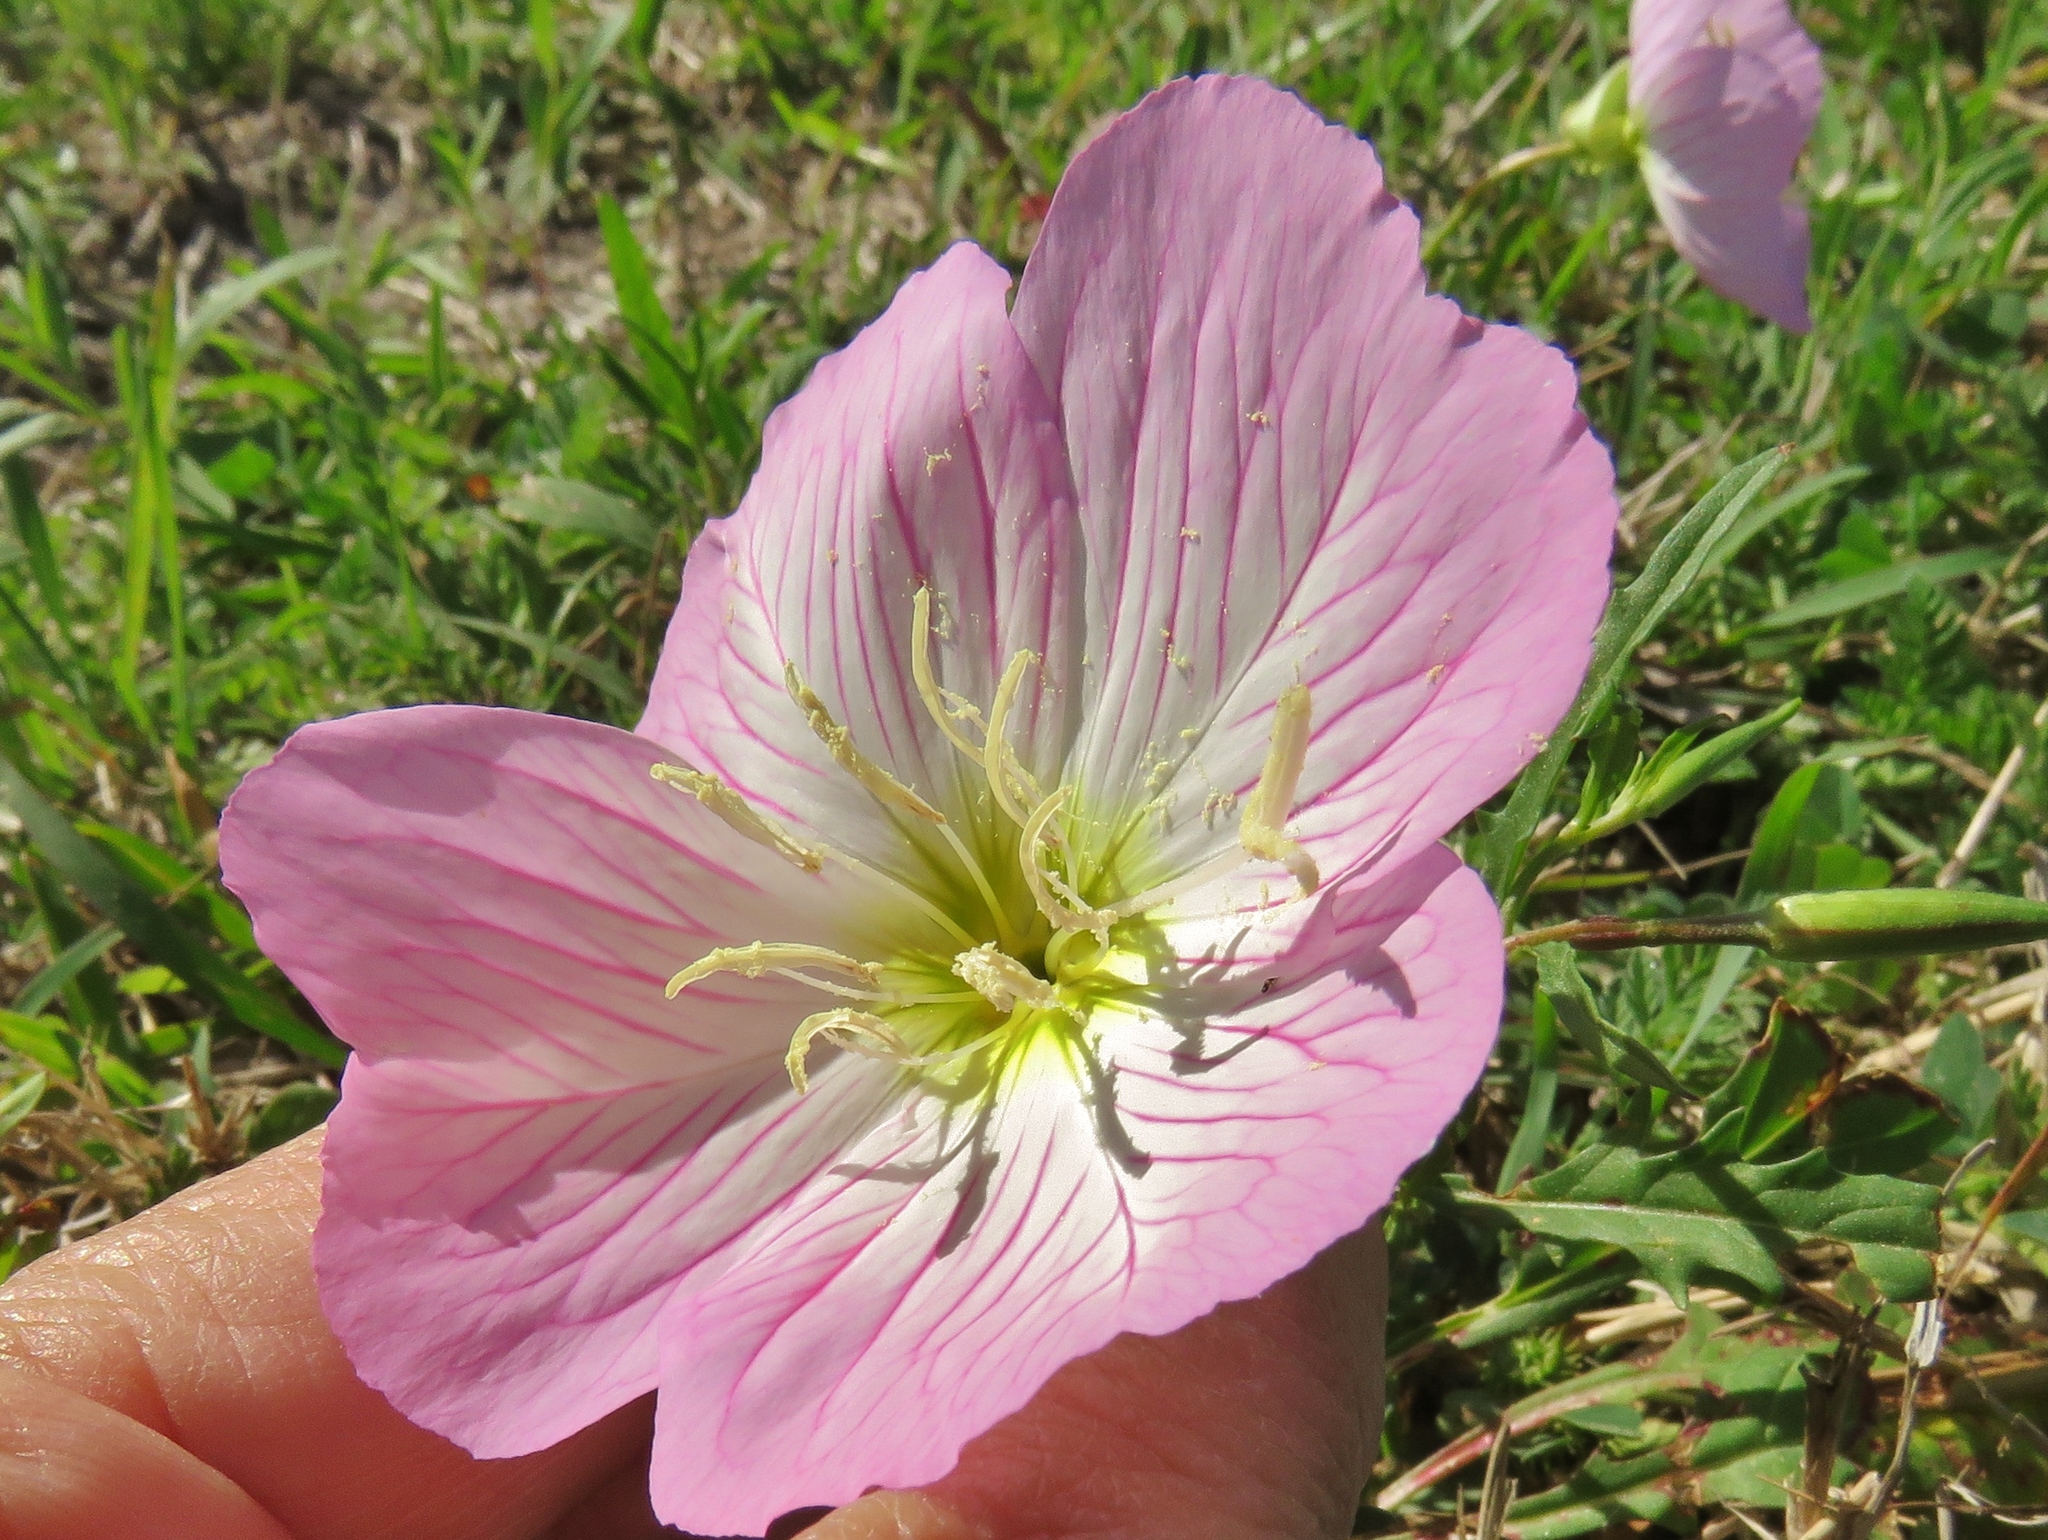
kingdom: Plantae
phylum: Tracheophyta
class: Magnoliopsida
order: Myrtales
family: Onagraceae
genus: Oenothera
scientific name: Oenothera speciosa
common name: White evening-primrose
